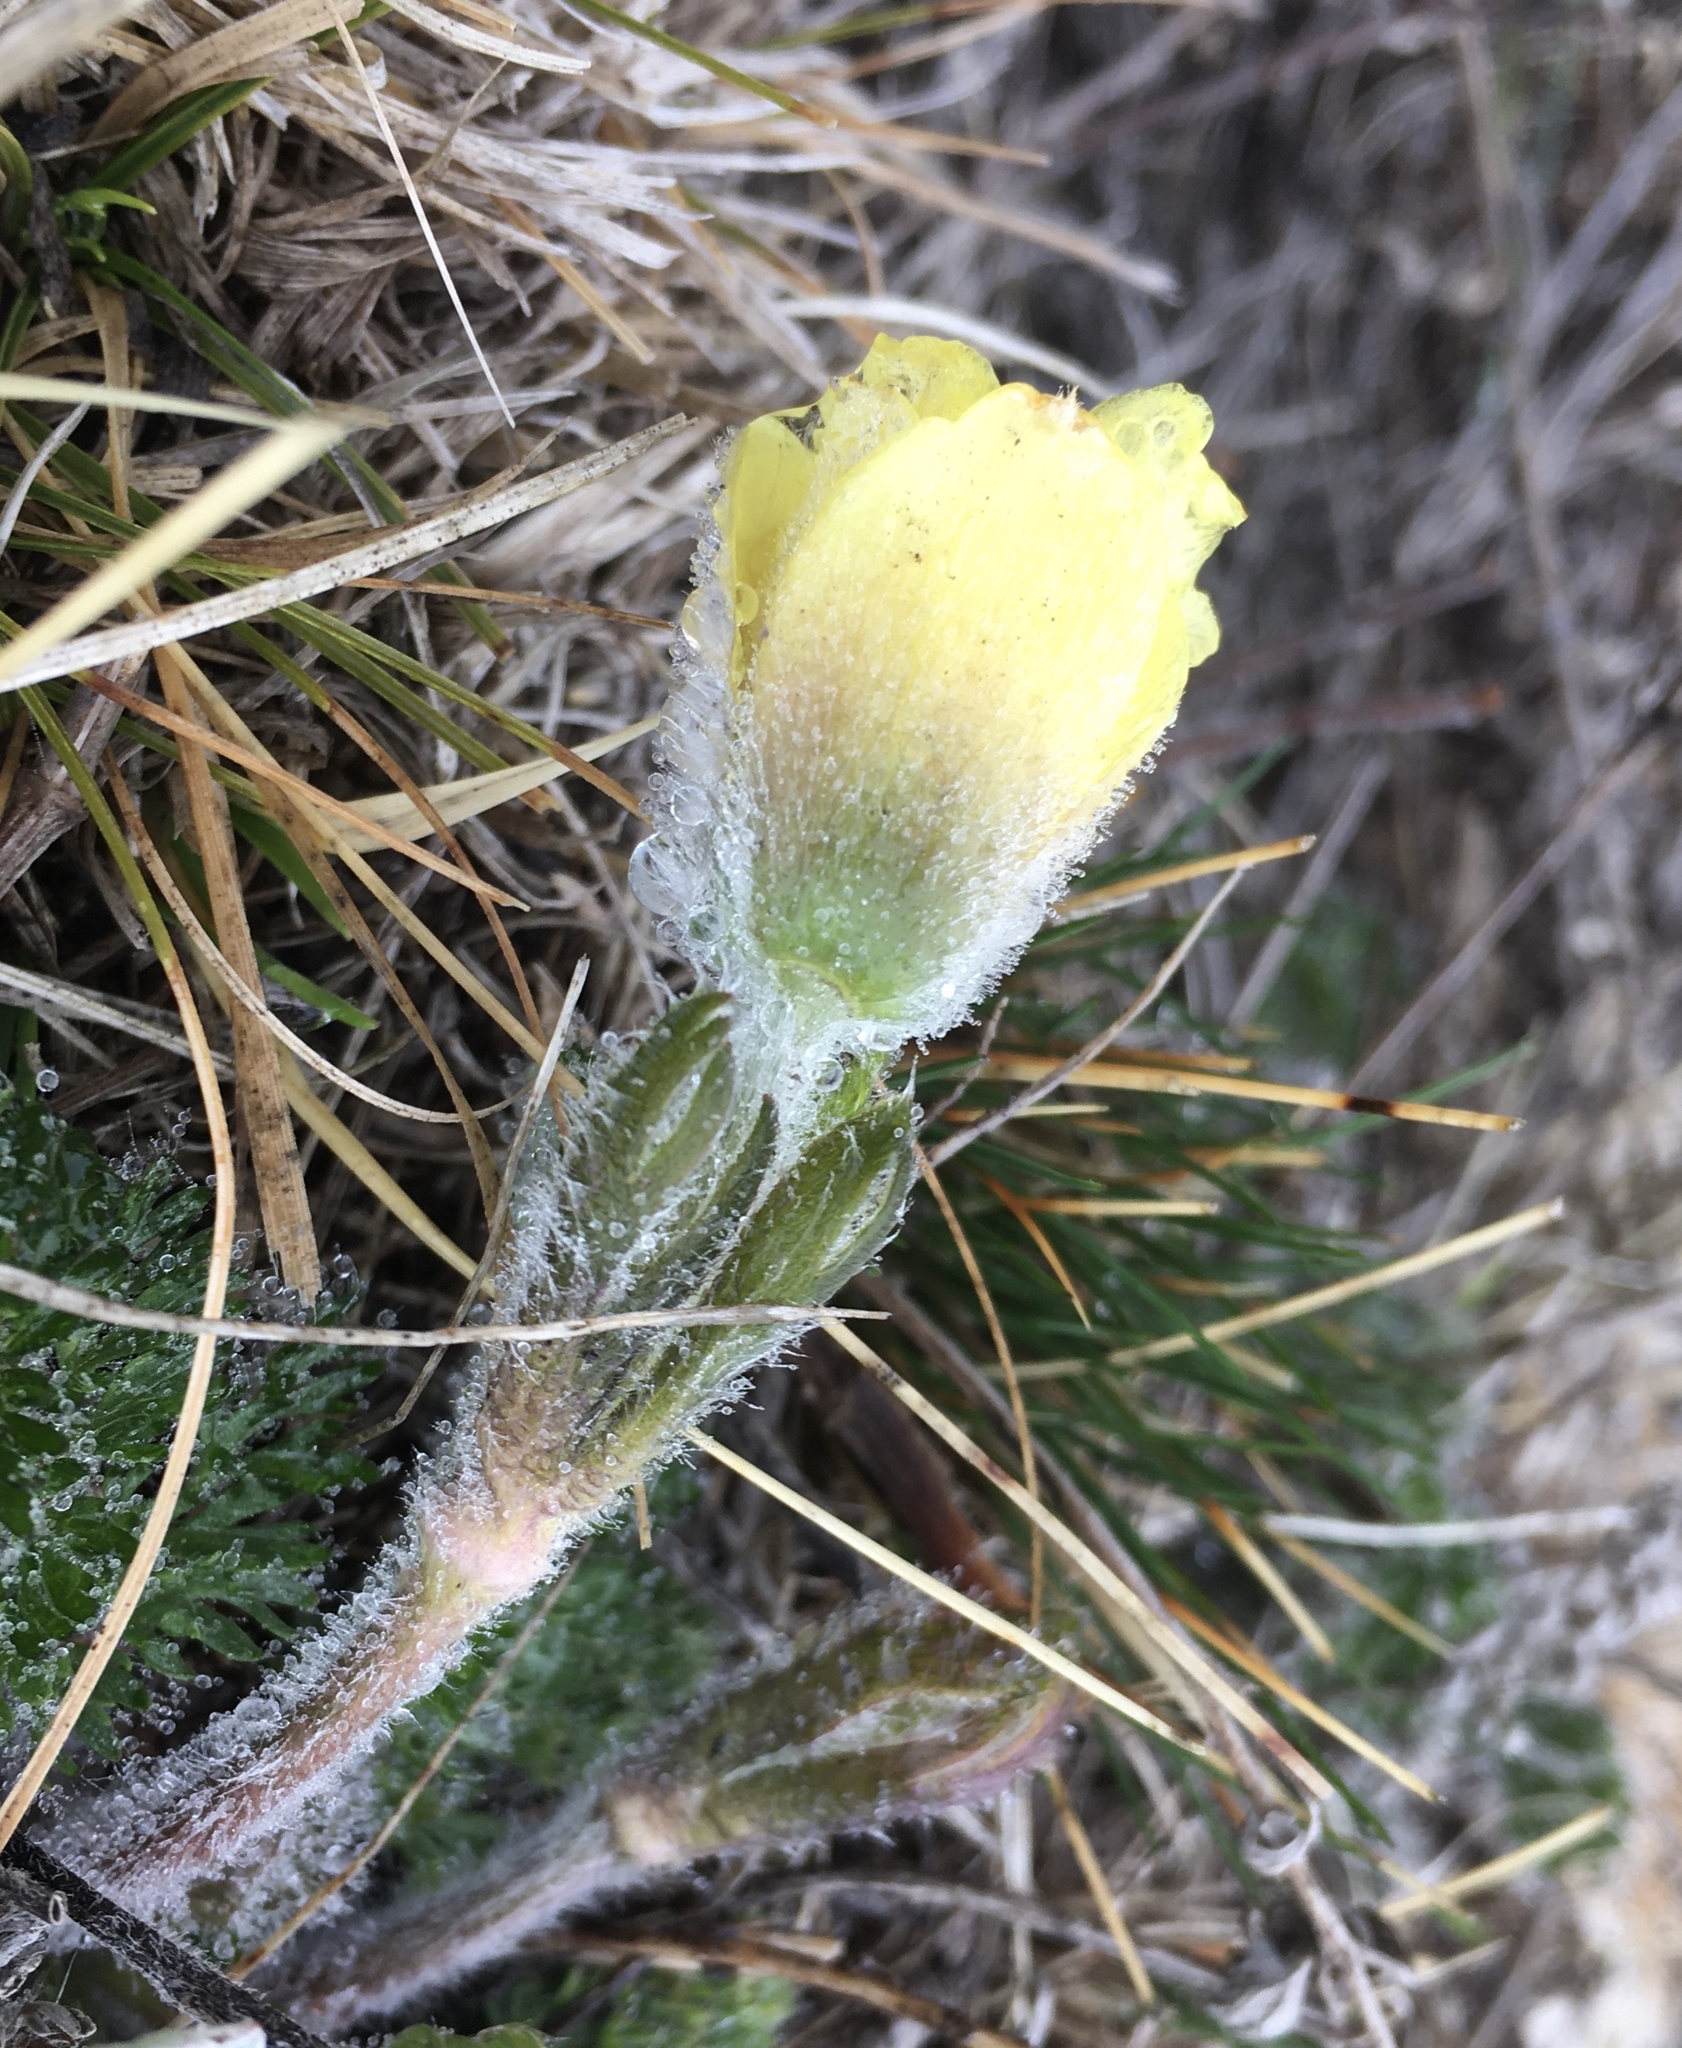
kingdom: Plantae
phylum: Tracheophyta
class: Magnoliopsida
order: Ranunculales
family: Ranunculaceae
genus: Pulsatilla
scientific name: Pulsatilla albana
